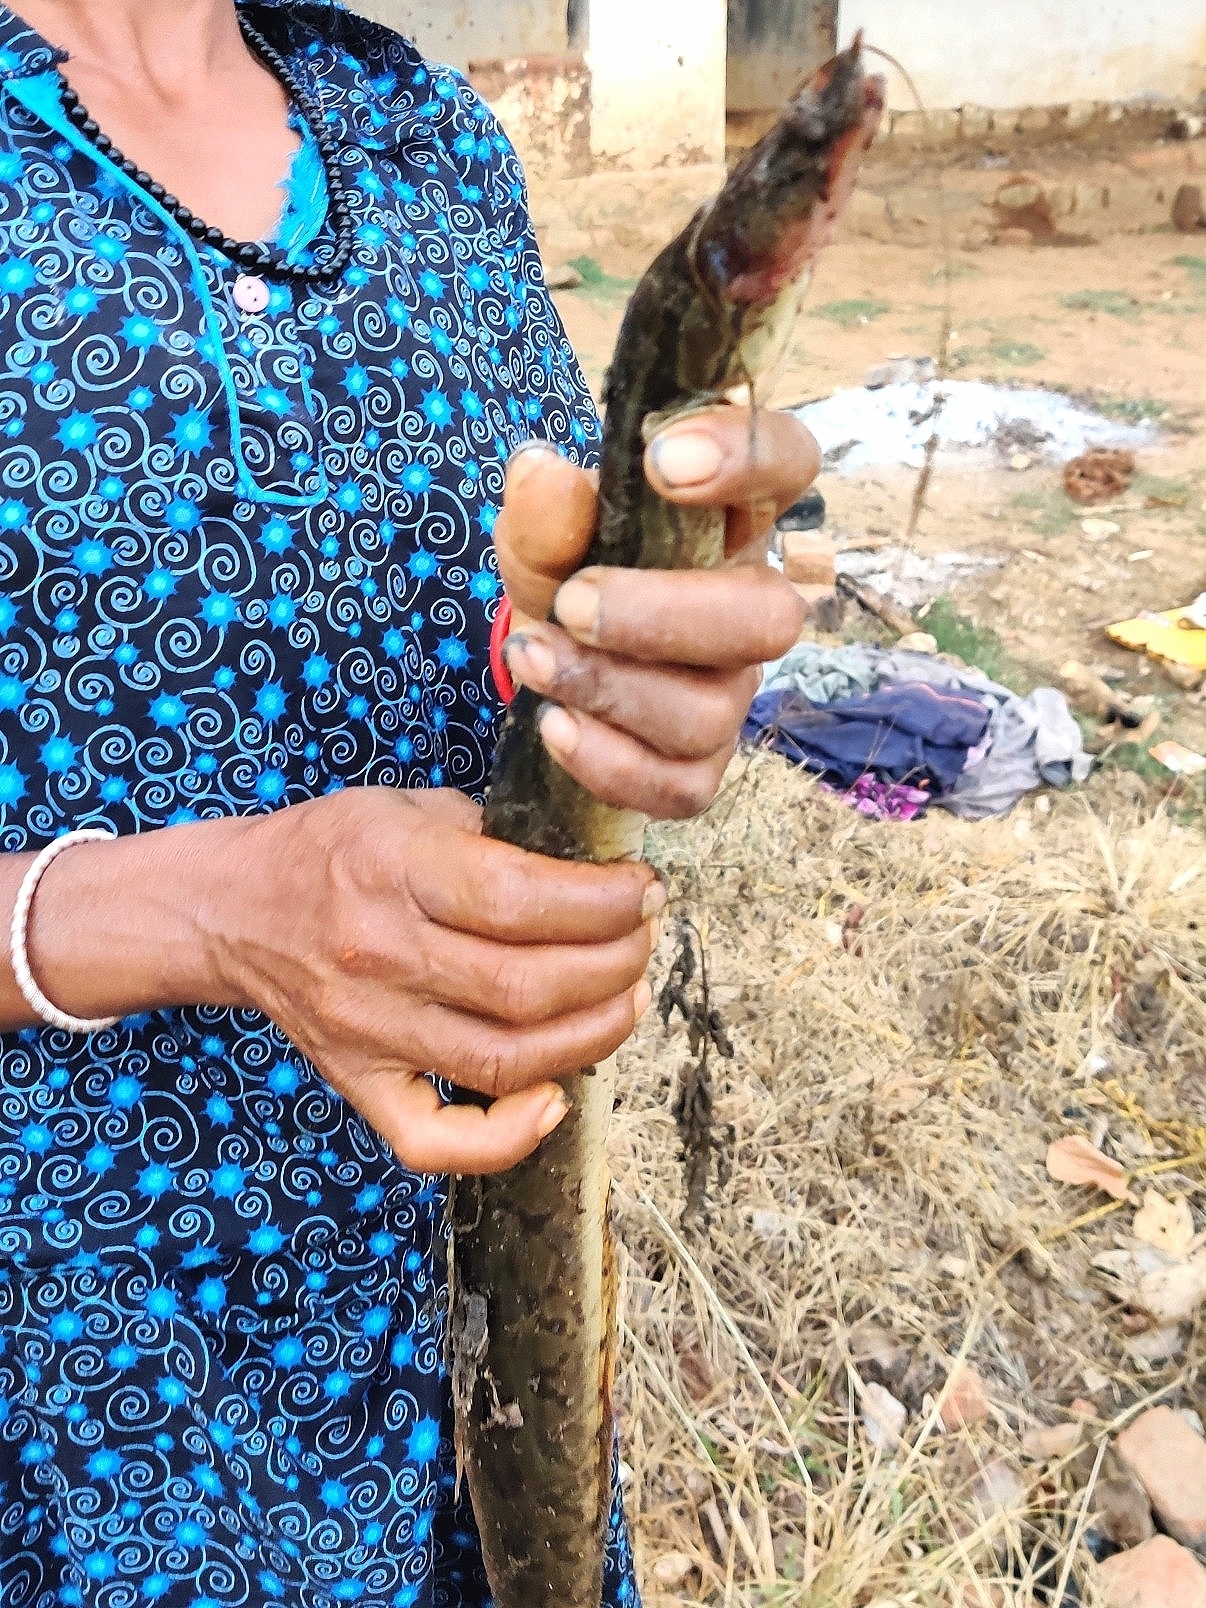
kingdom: Animalia
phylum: Chordata
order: Synbranchiformes
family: Mastacembelidae
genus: Mastacembelus
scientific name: Mastacembelus armatus
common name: Spiny eel
